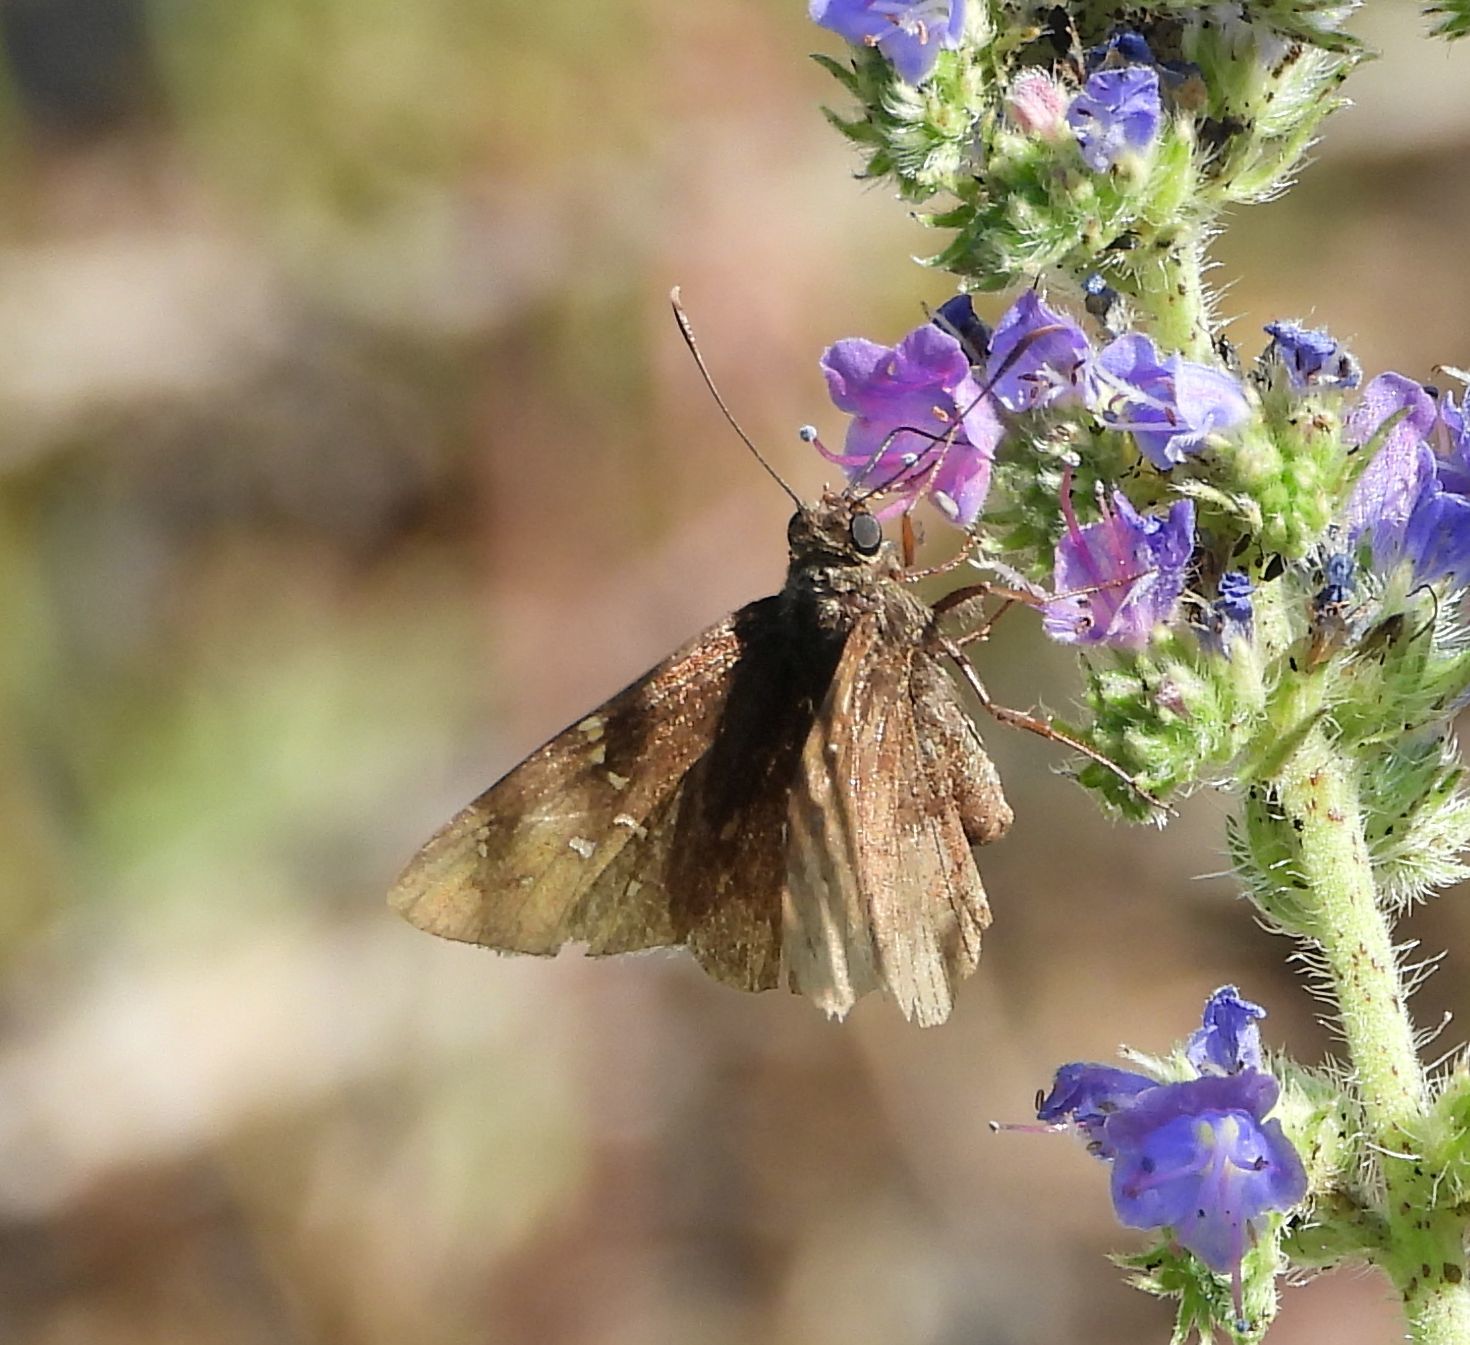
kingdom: Animalia
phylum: Arthropoda
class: Insecta
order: Lepidoptera
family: Hesperiidae
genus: Thorybes
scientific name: Thorybes pylades
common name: Northern cloudywing
